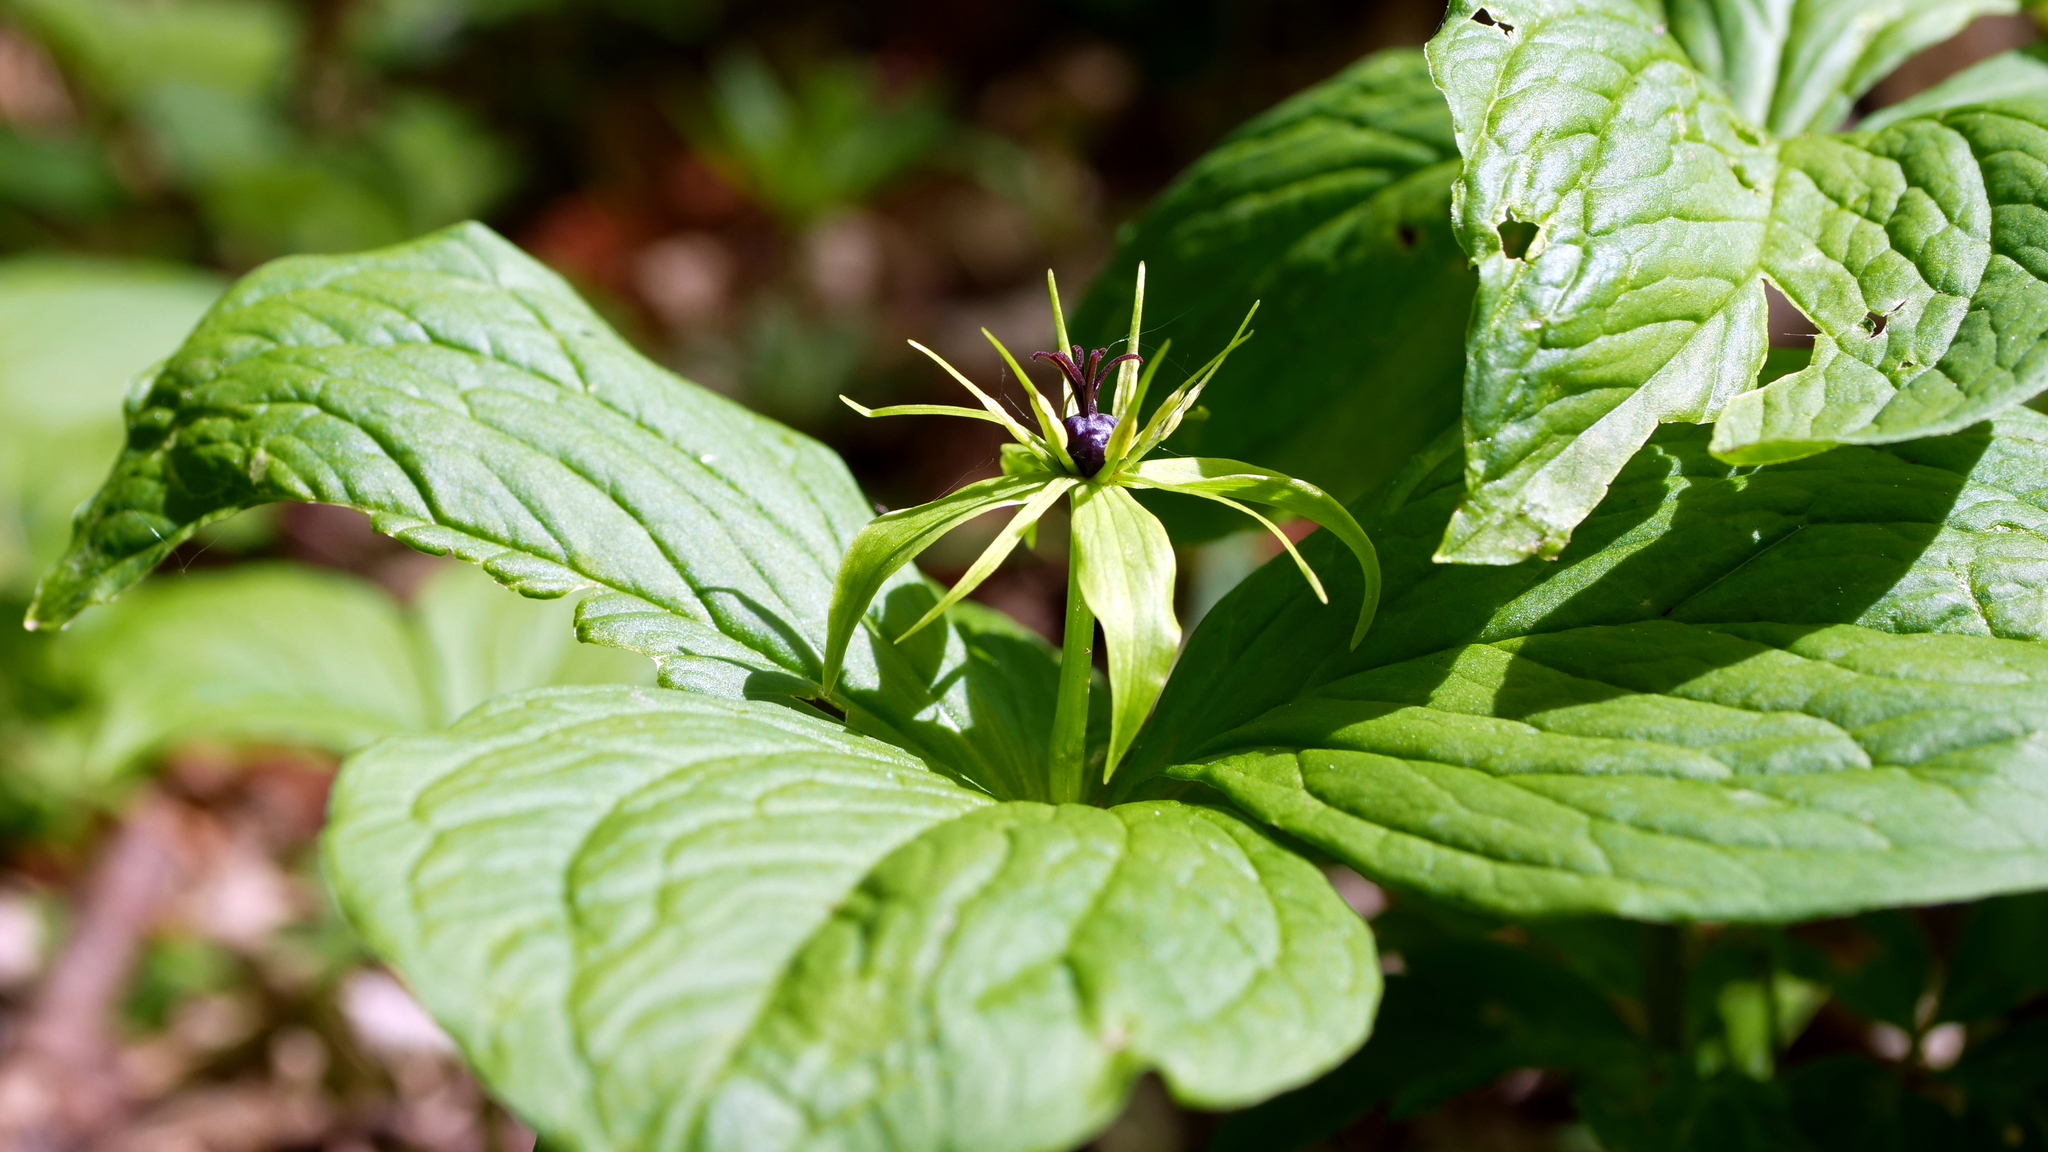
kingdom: Plantae
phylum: Tracheophyta
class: Liliopsida
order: Liliales
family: Melanthiaceae
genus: Paris
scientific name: Paris quadrifolia
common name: Herb-paris
